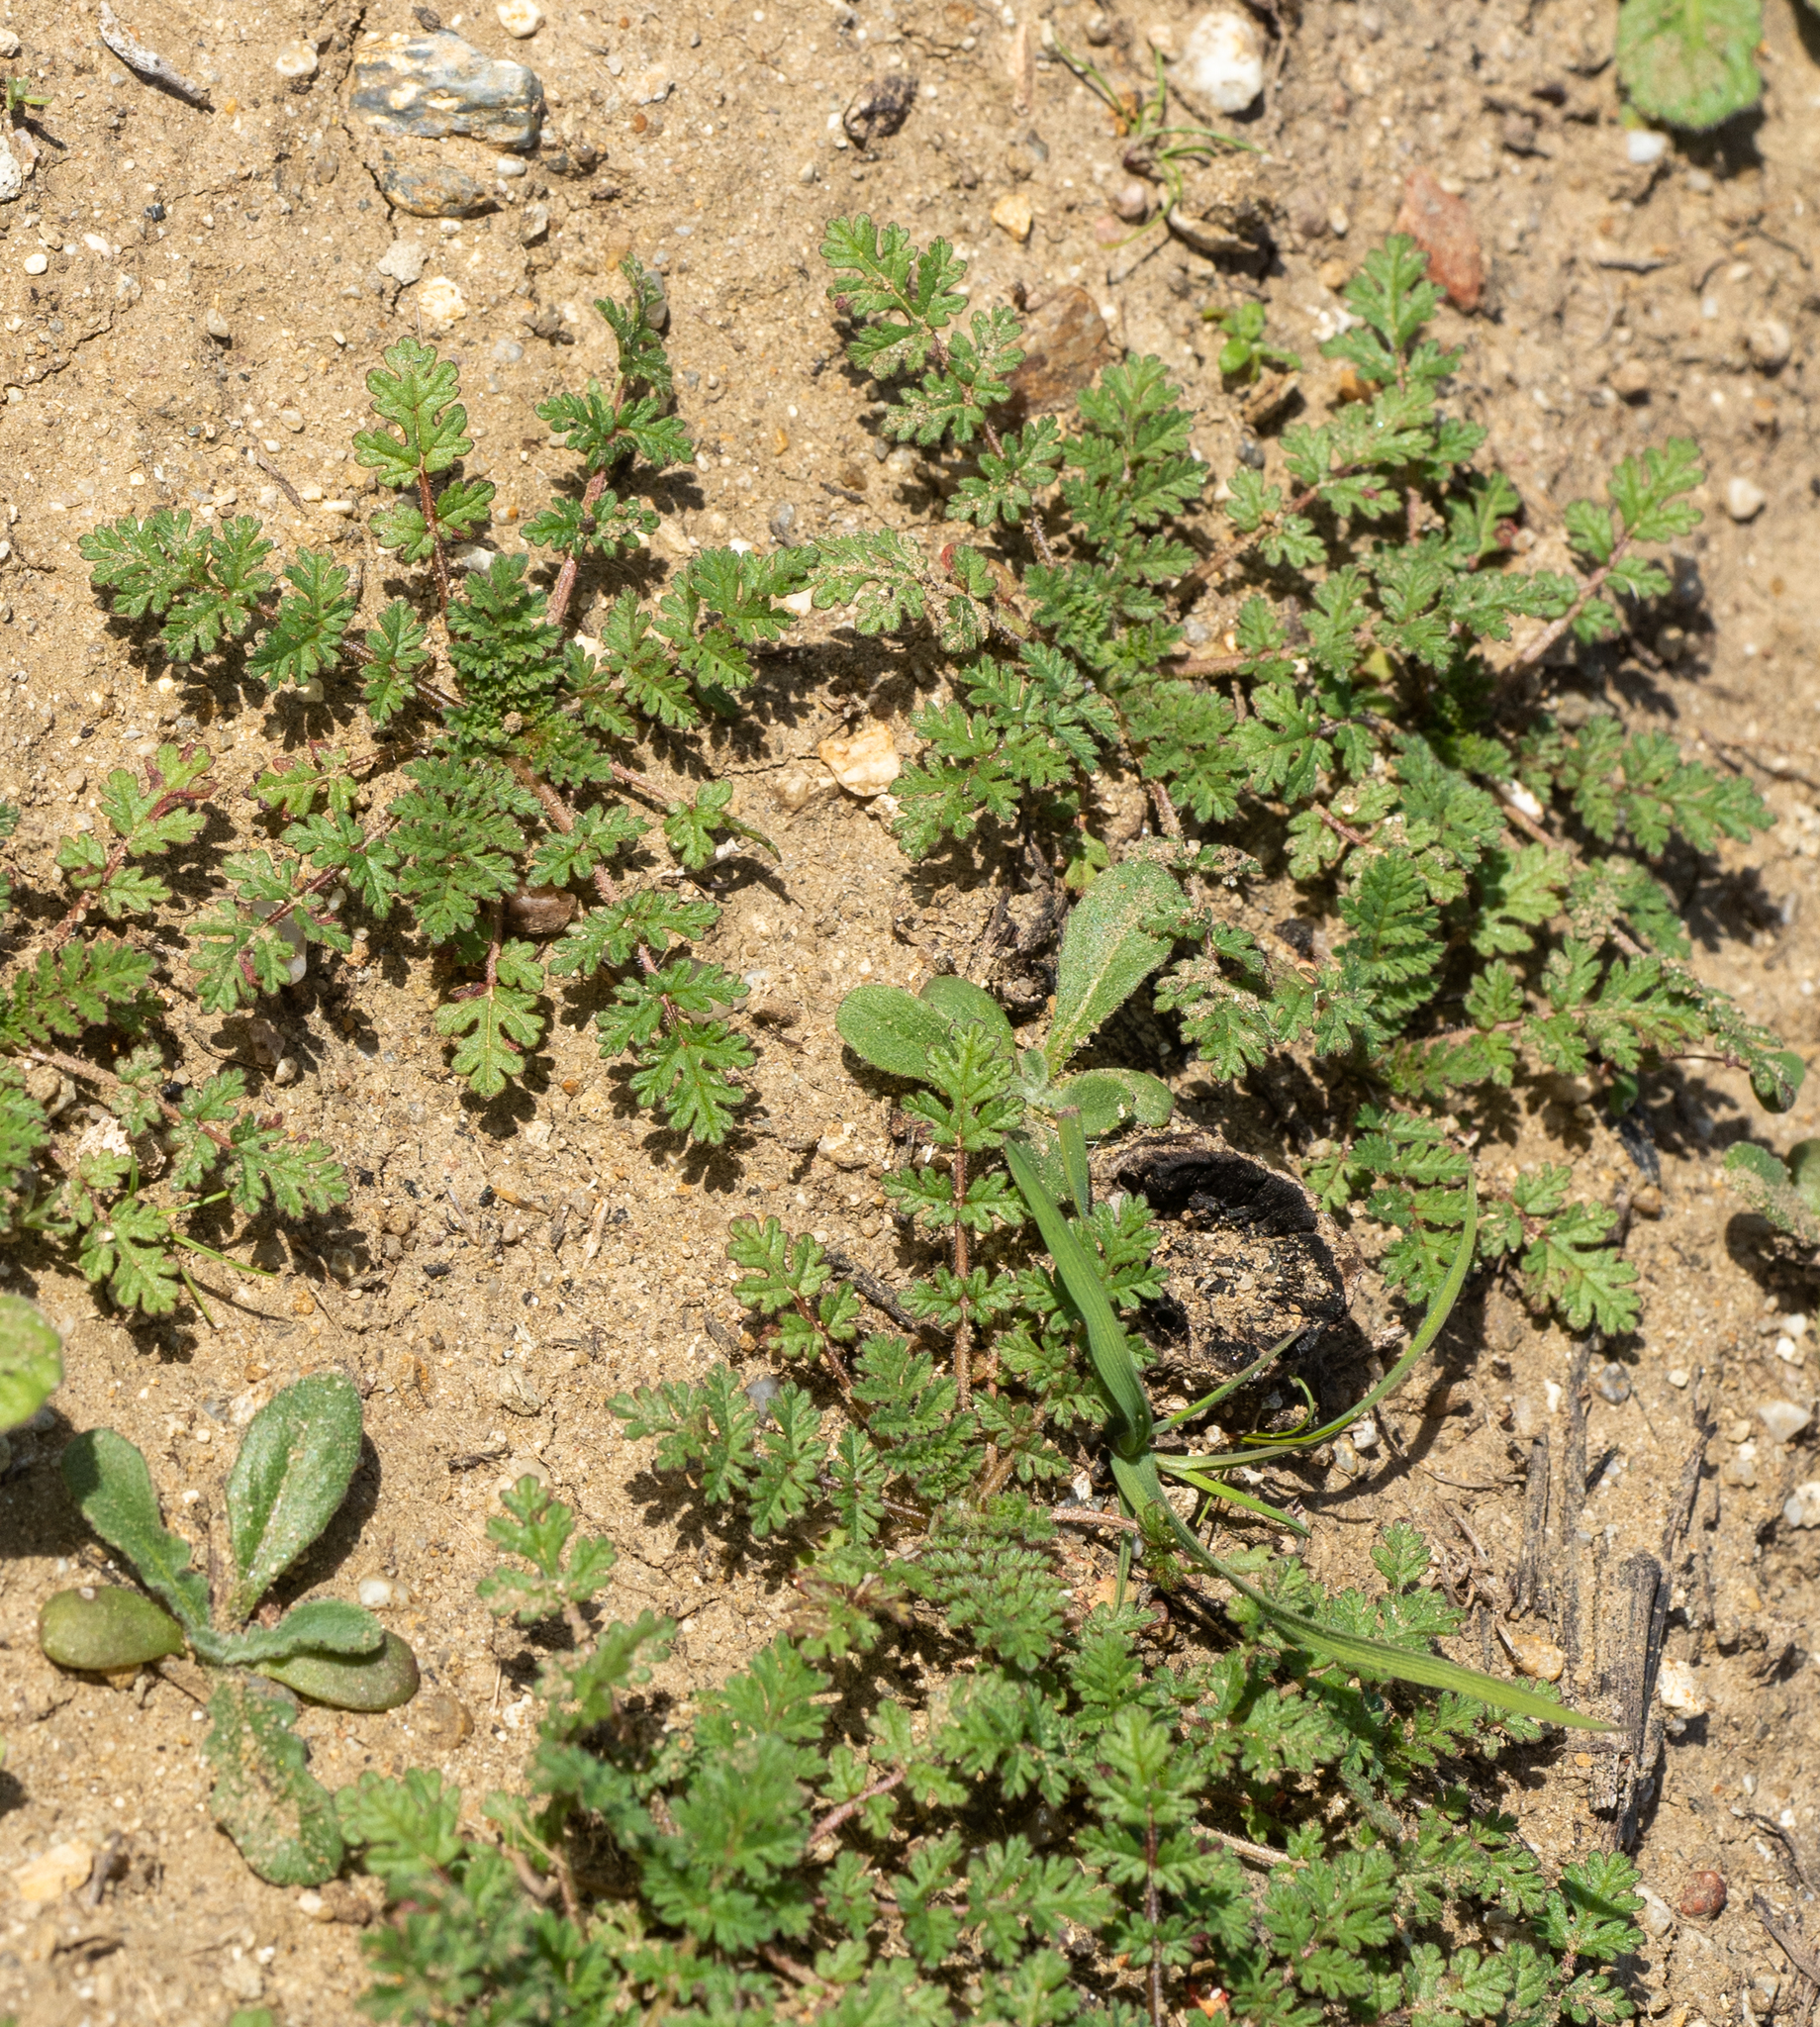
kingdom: Plantae
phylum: Tracheophyta
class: Magnoliopsida
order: Geraniales
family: Geraniaceae
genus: Erodium
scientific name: Erodium
